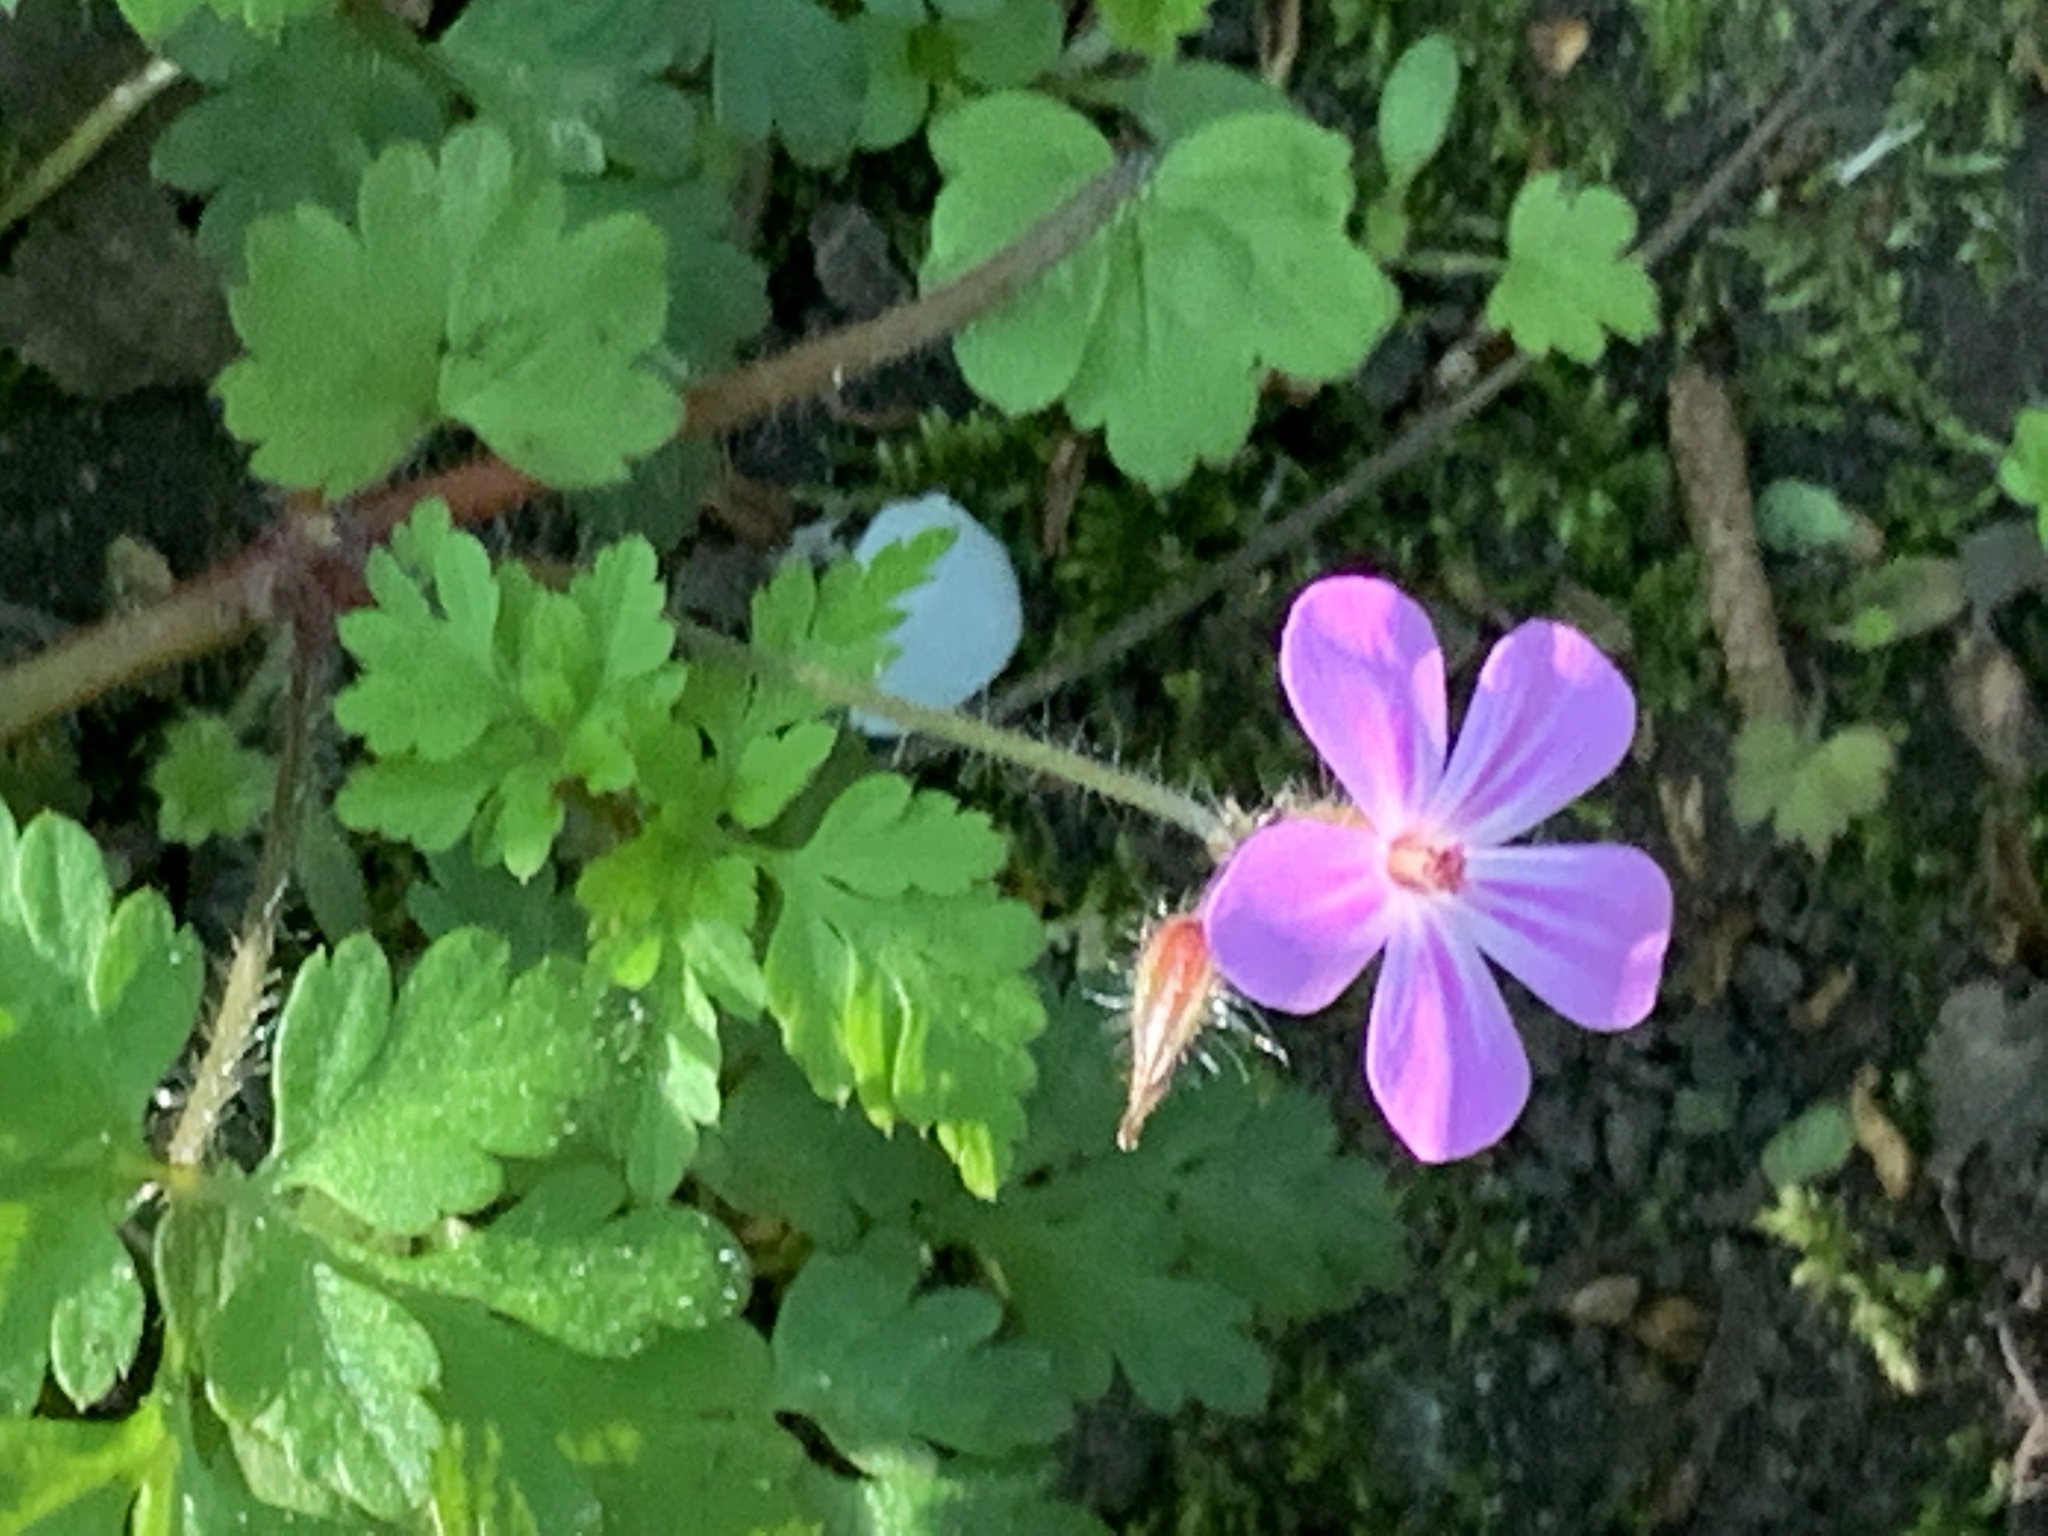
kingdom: Plantae
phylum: Tracheophyta
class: Magnoliopsida
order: Geraniales
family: Geraniaceae
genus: Geranium
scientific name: Geranium robertianum
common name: Herb-robert
